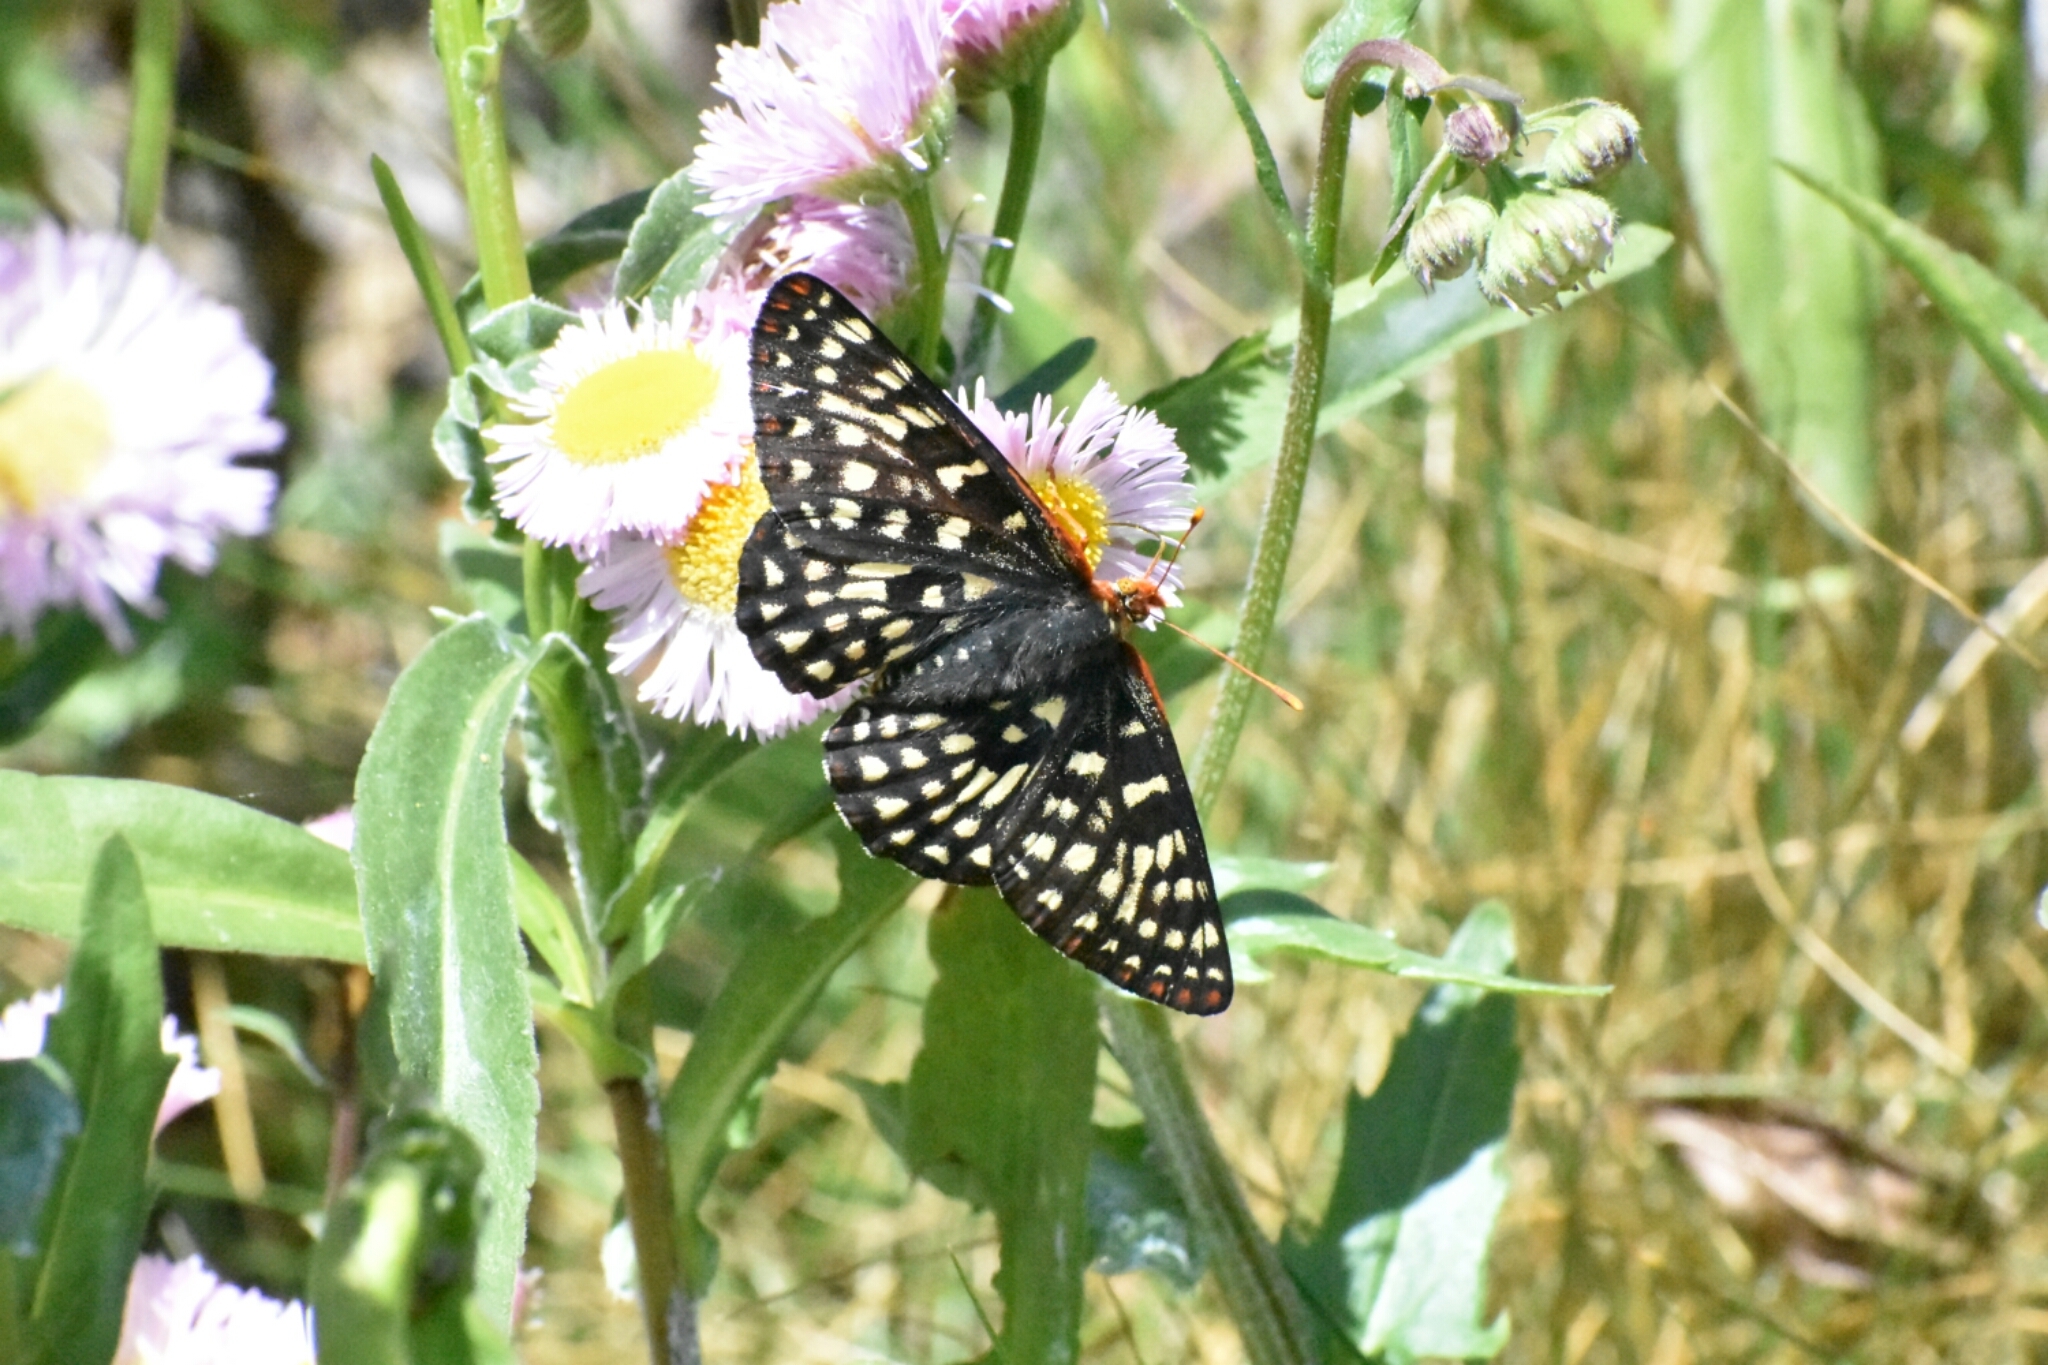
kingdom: Animalia
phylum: Arthropoda
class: Insecta
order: Lepidoptera
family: Nymphalidae
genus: Occidryas
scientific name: Occidryas chalcedona
